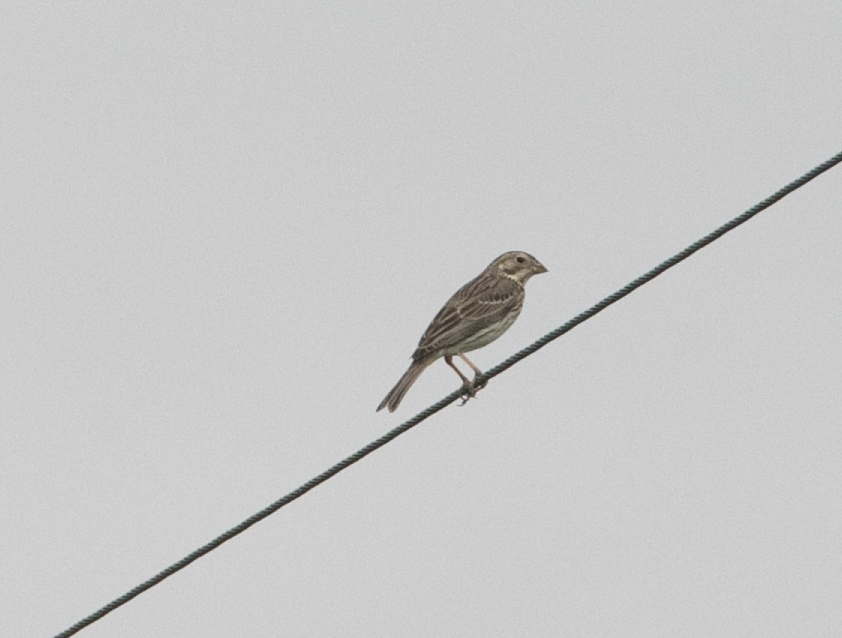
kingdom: Animalia
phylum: Chordata
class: Aves
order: Passeriformes
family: Emberizidae
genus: Emberiza
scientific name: Emberiza calandra
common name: Corn bunting
